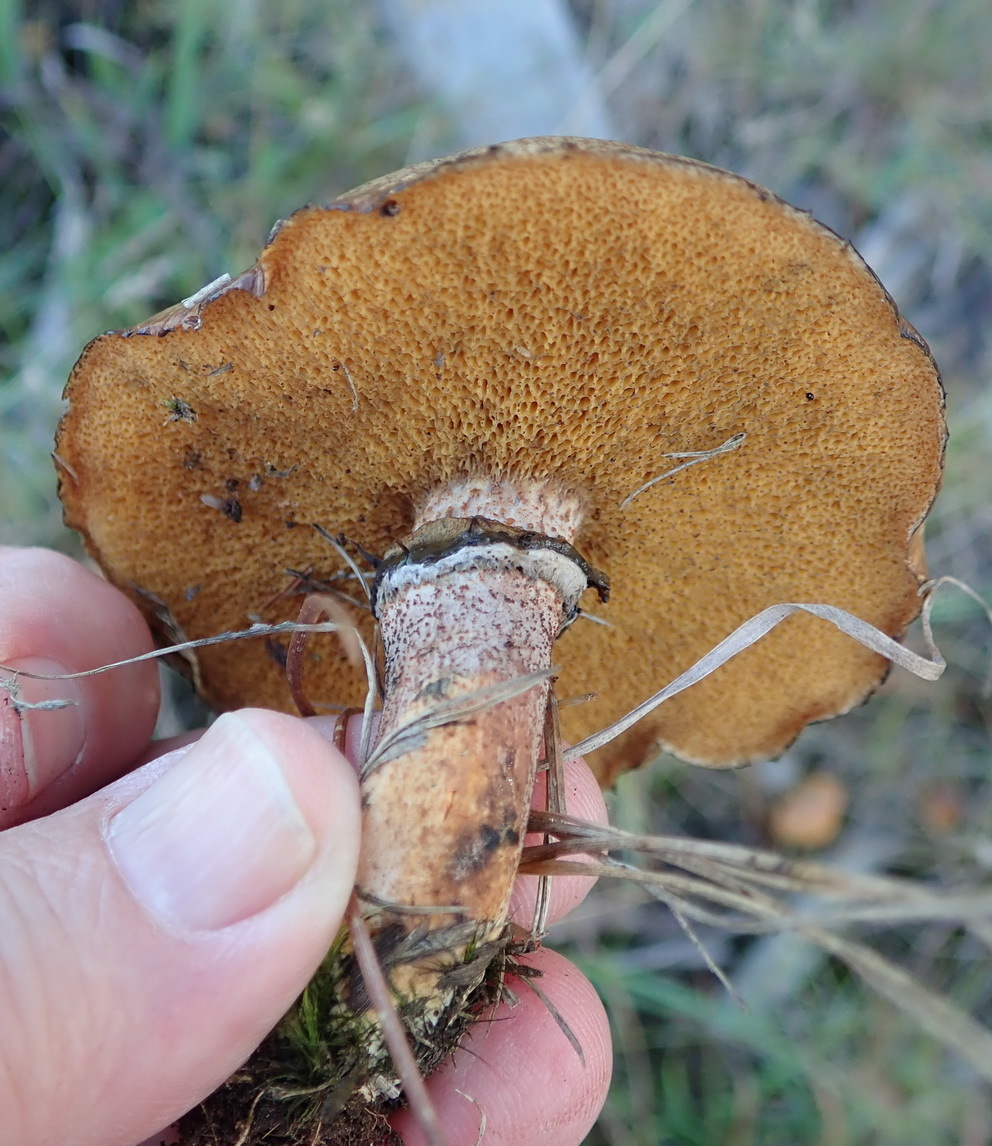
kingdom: Fungi
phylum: Basidiomycota
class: Agaricomycetes
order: Boletales
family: Suillaceae
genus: Suillus
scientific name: Suillus luteus
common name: Slippery jack
